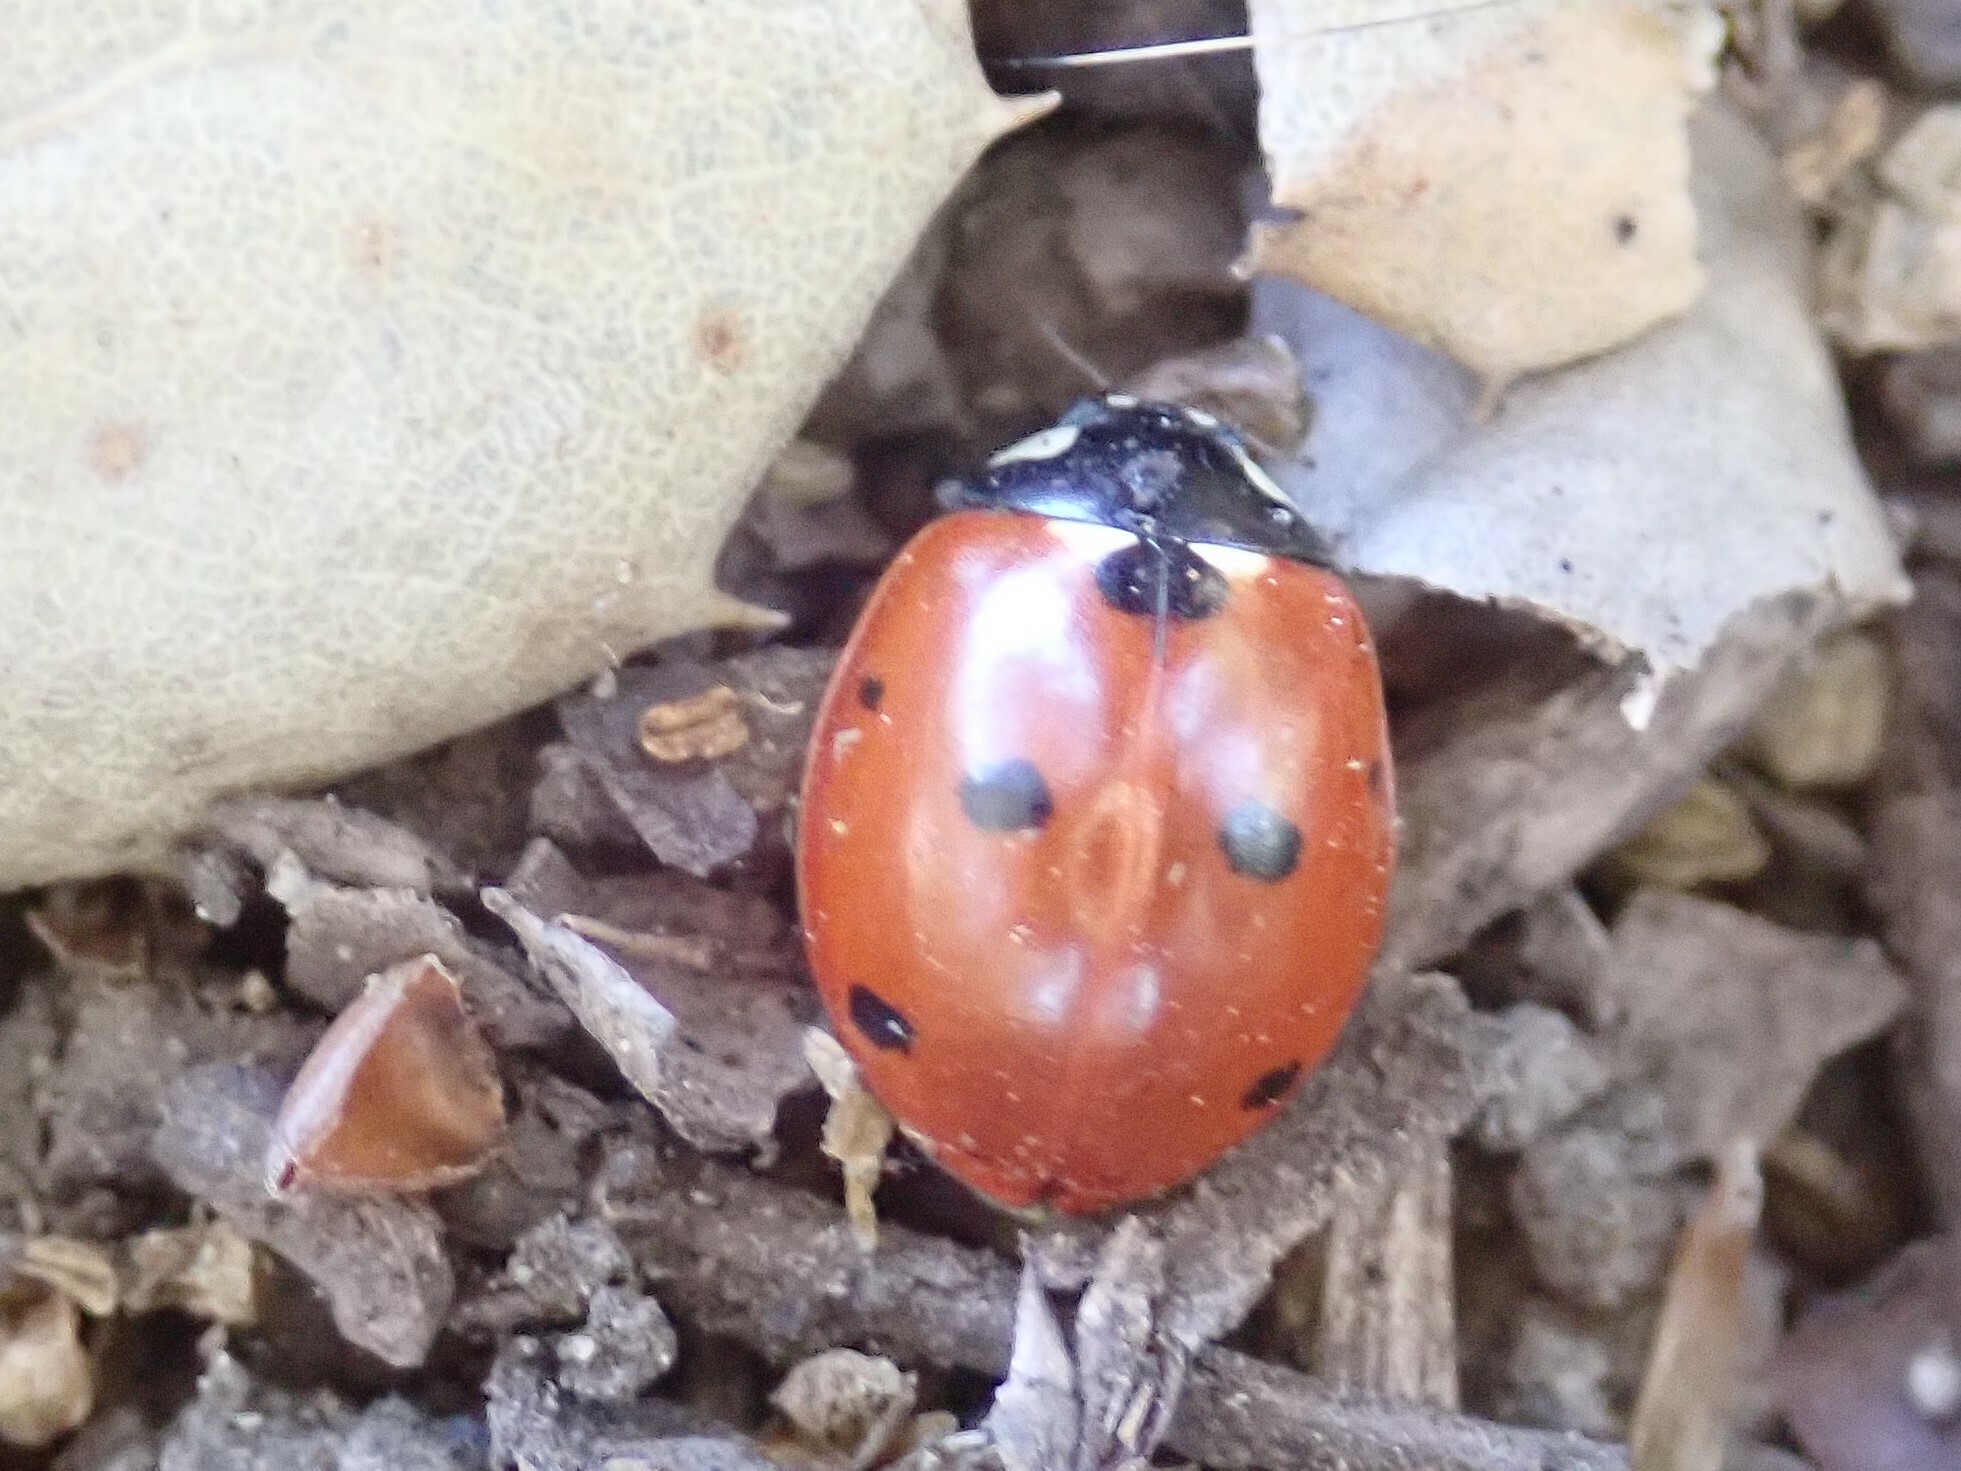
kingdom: Animalia
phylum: Arthropoda
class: Insecta
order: Coleoptera
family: Coccinellidae
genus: Coccinella
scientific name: Coccinella septempunctata
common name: Sevenspotted lady beetle
